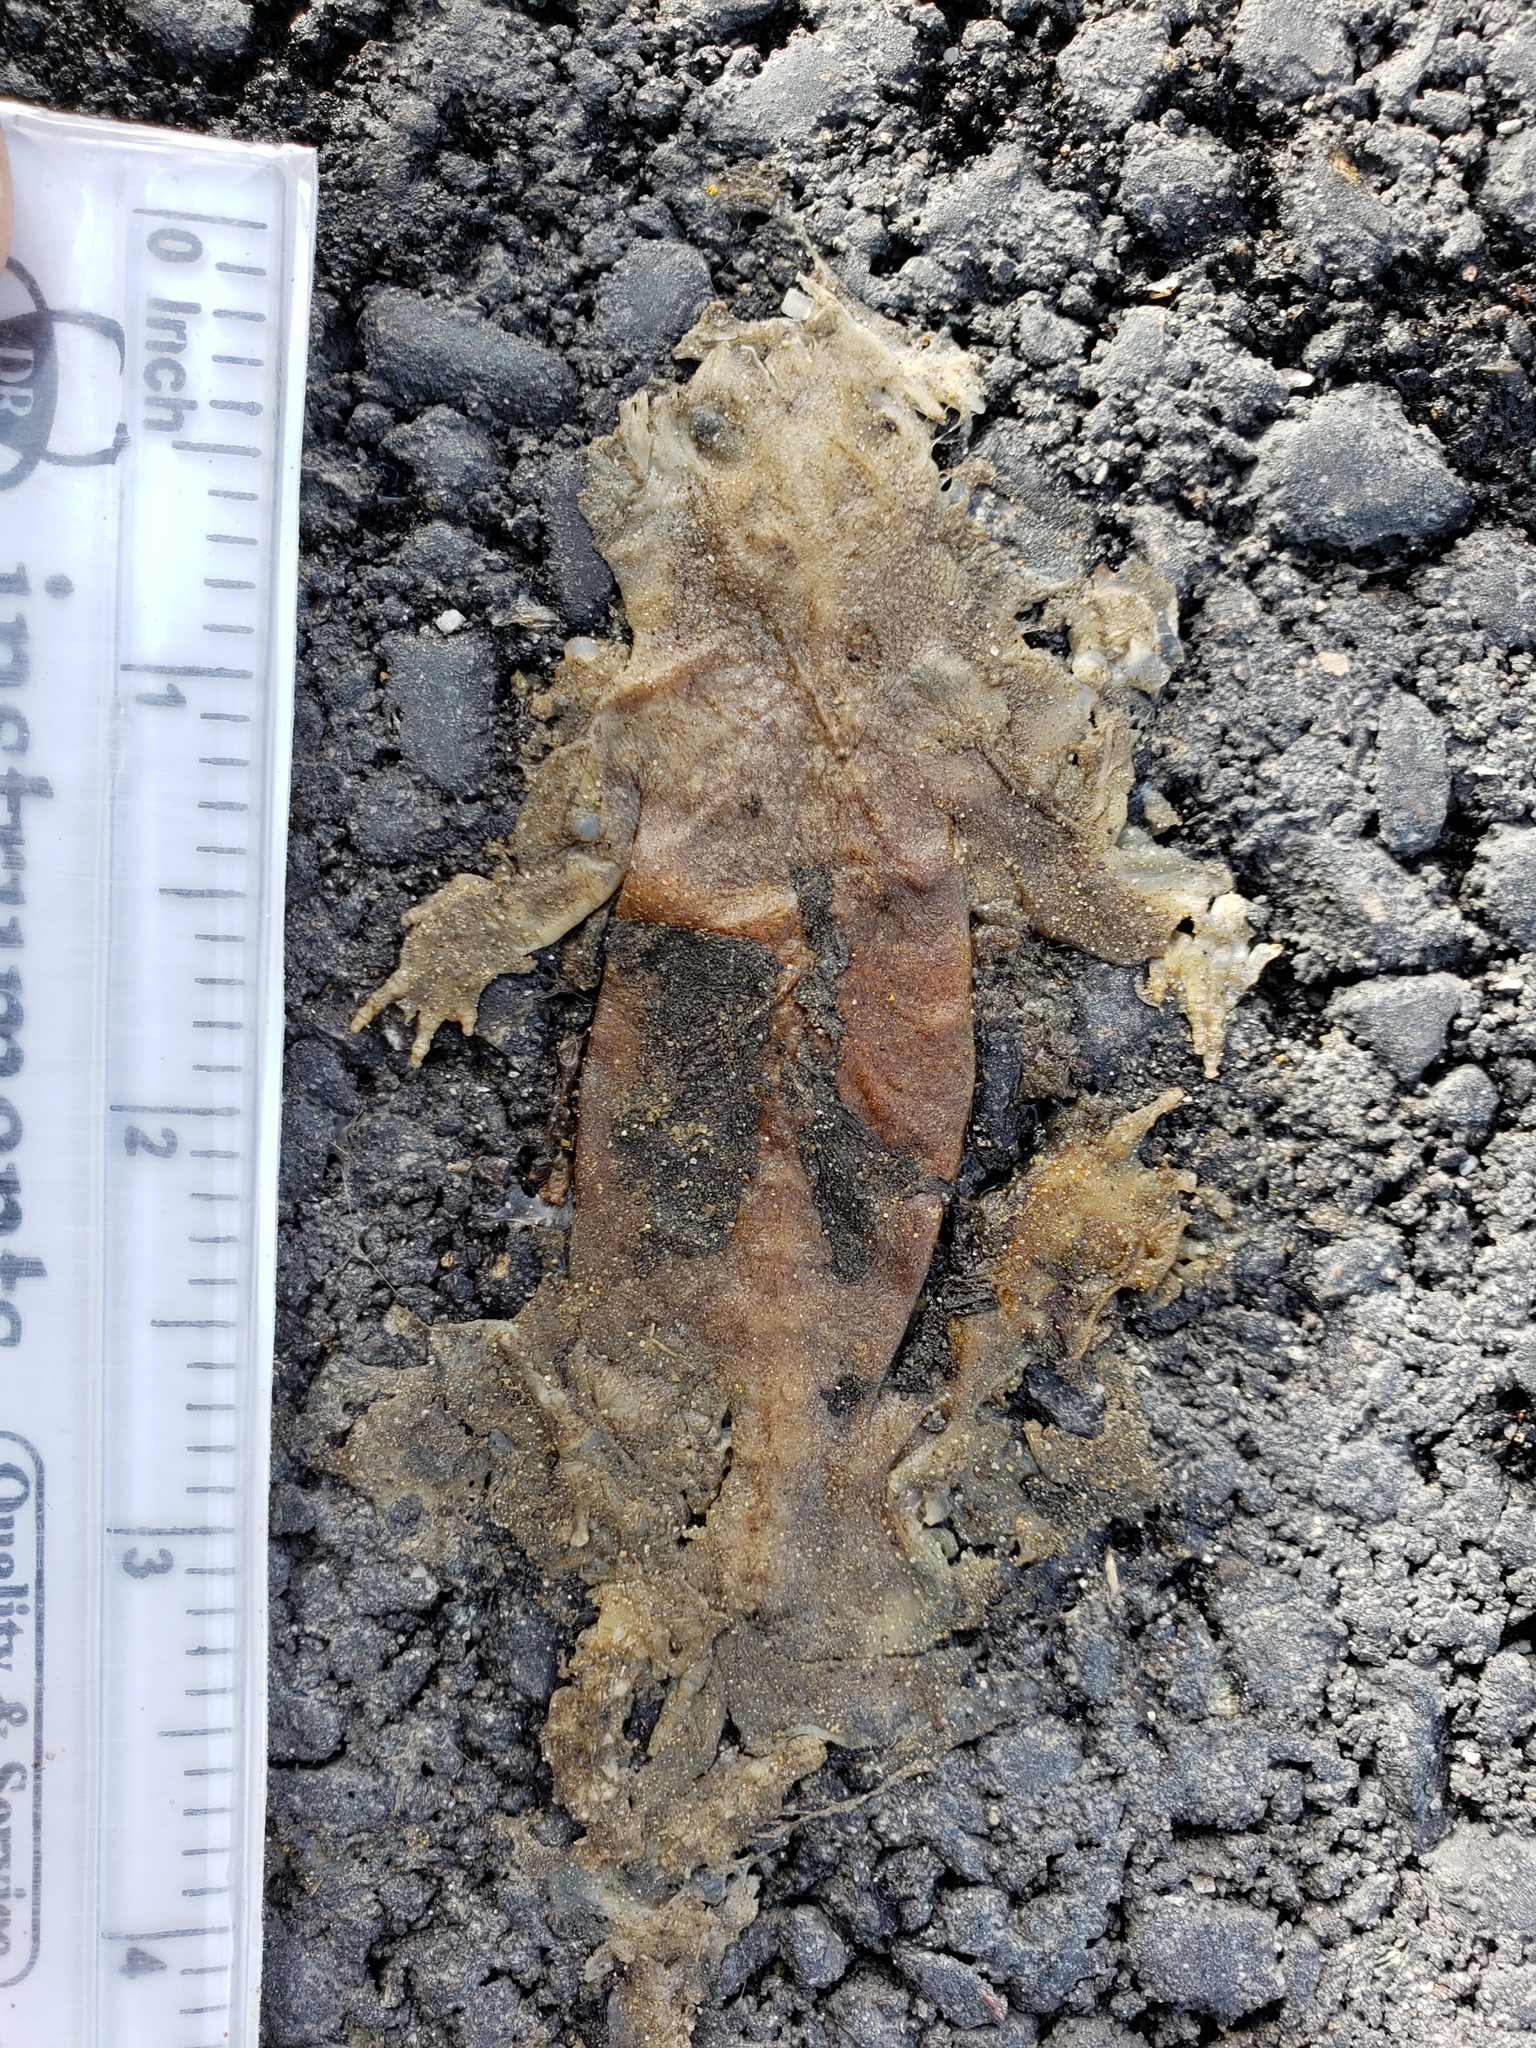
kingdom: Animalia
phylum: Chordata
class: Amphibia
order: Caudata
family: Salamandridae
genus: Taricha
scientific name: Taricha
